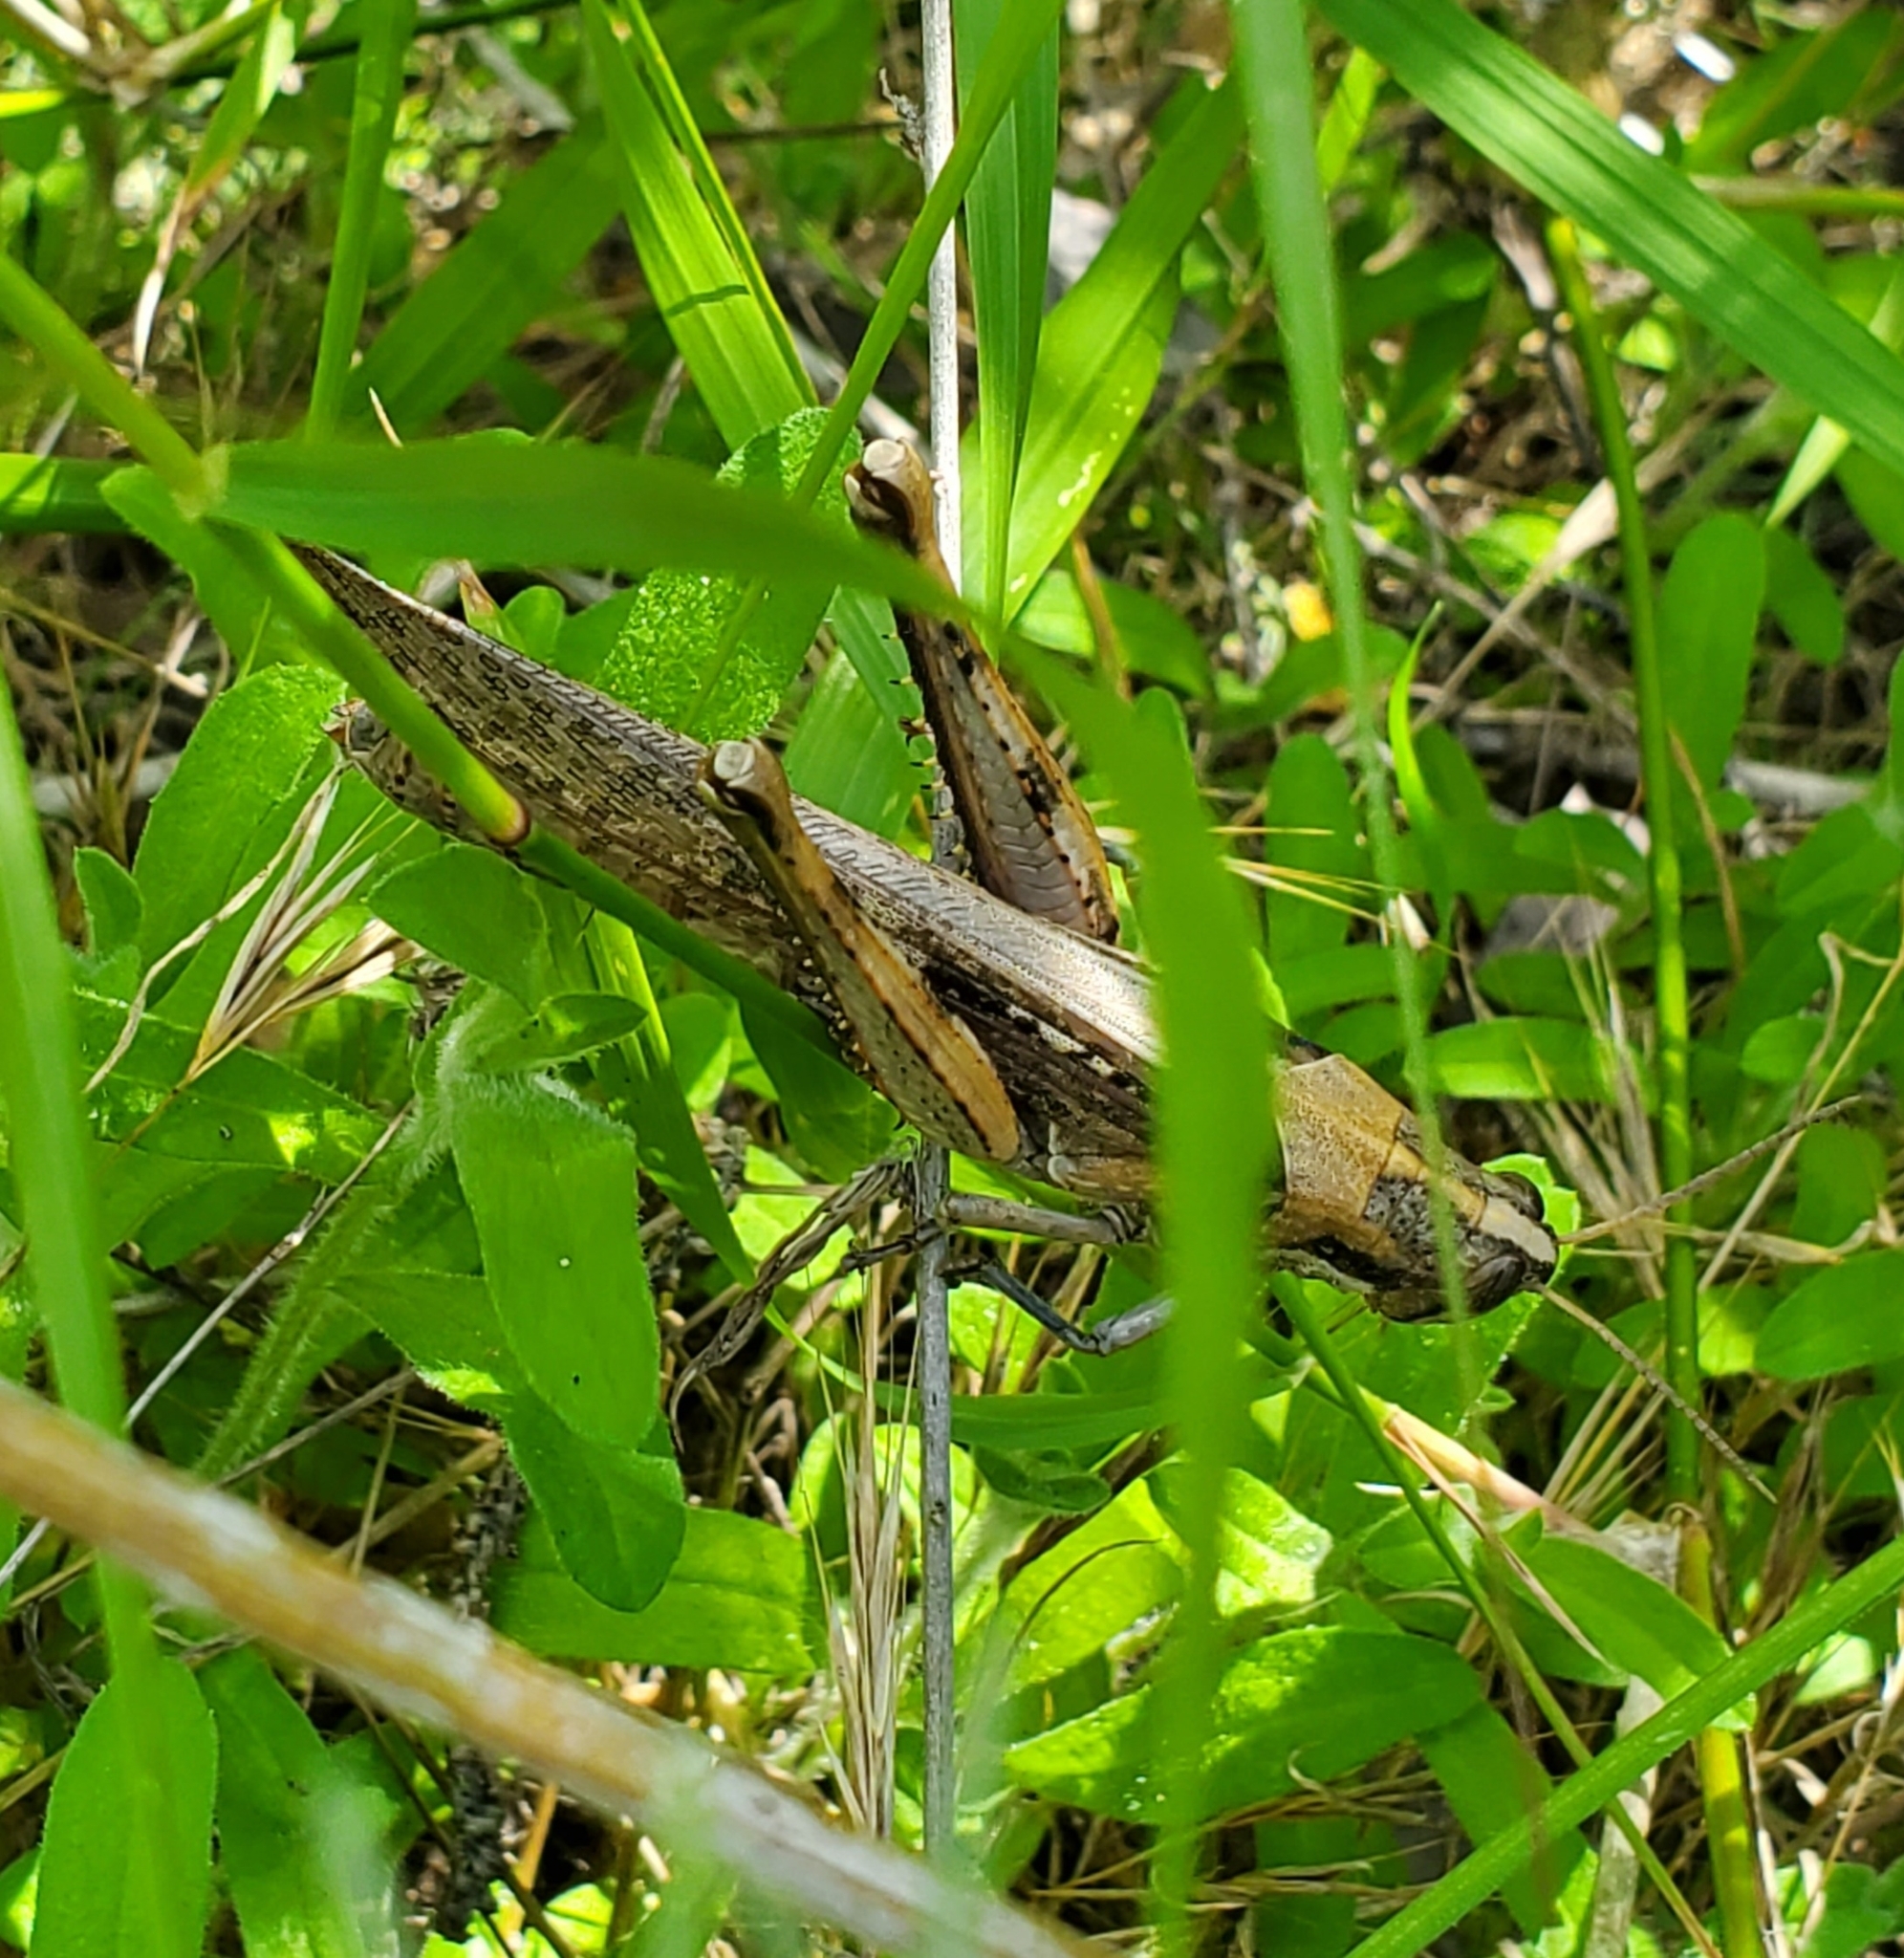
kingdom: Animalia
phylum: Arthropoda
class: Insecta
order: Orthoptera
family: Acrididae
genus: Schistocerca
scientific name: Schistocerca nitens
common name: Vagrant grasshopper
